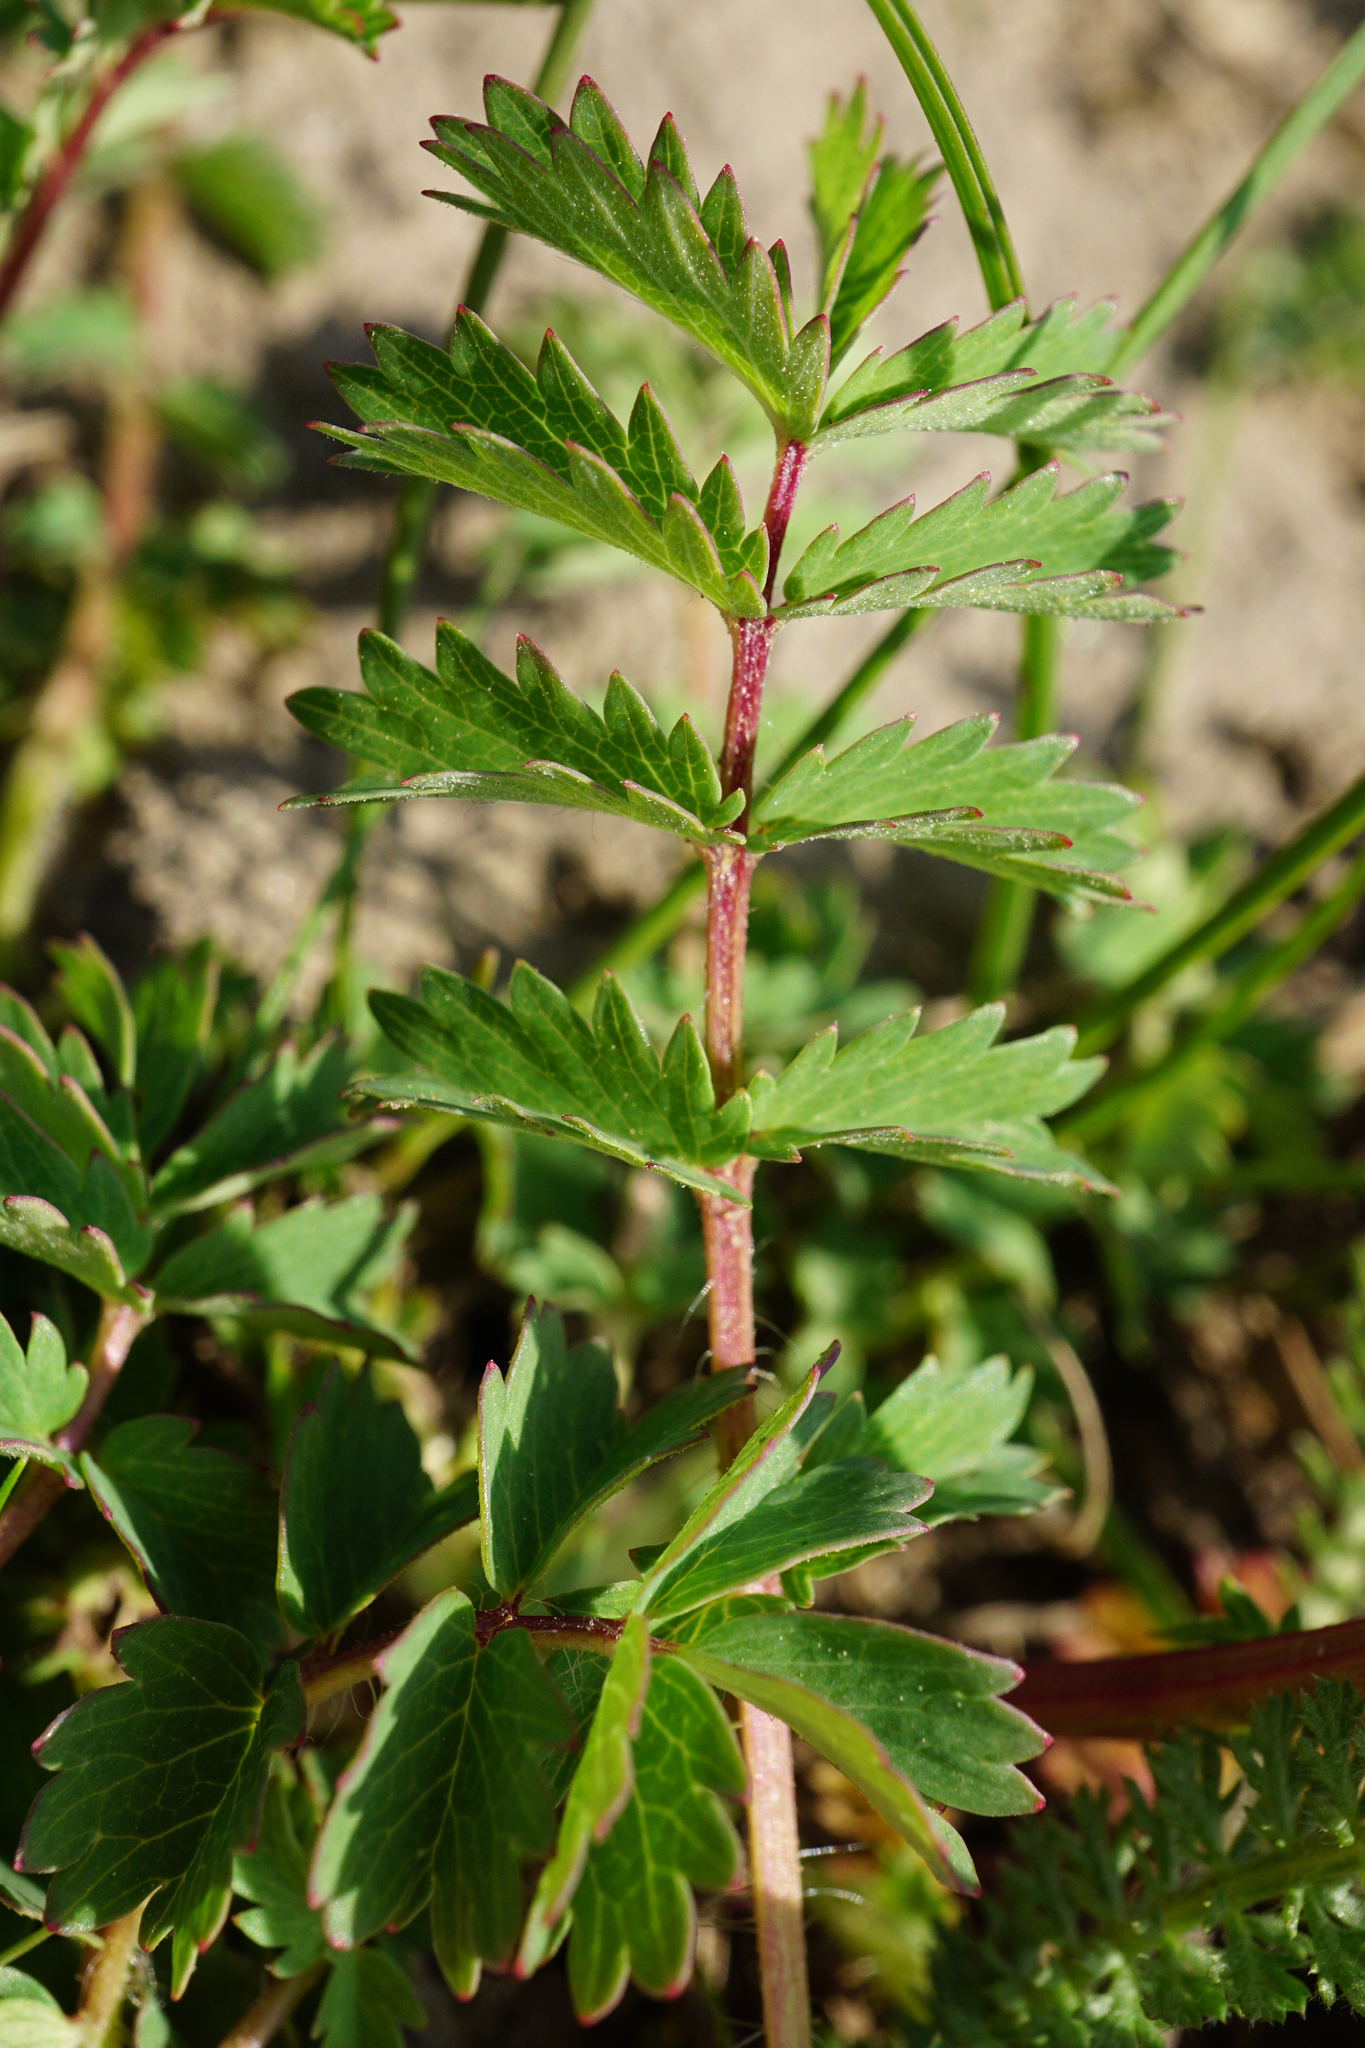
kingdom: Plantae
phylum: Tracheophyta
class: Magnoliopsida
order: Rosales
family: Rosaceae
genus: Poterium
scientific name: Poterium sanguisorba
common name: Salad burnet
